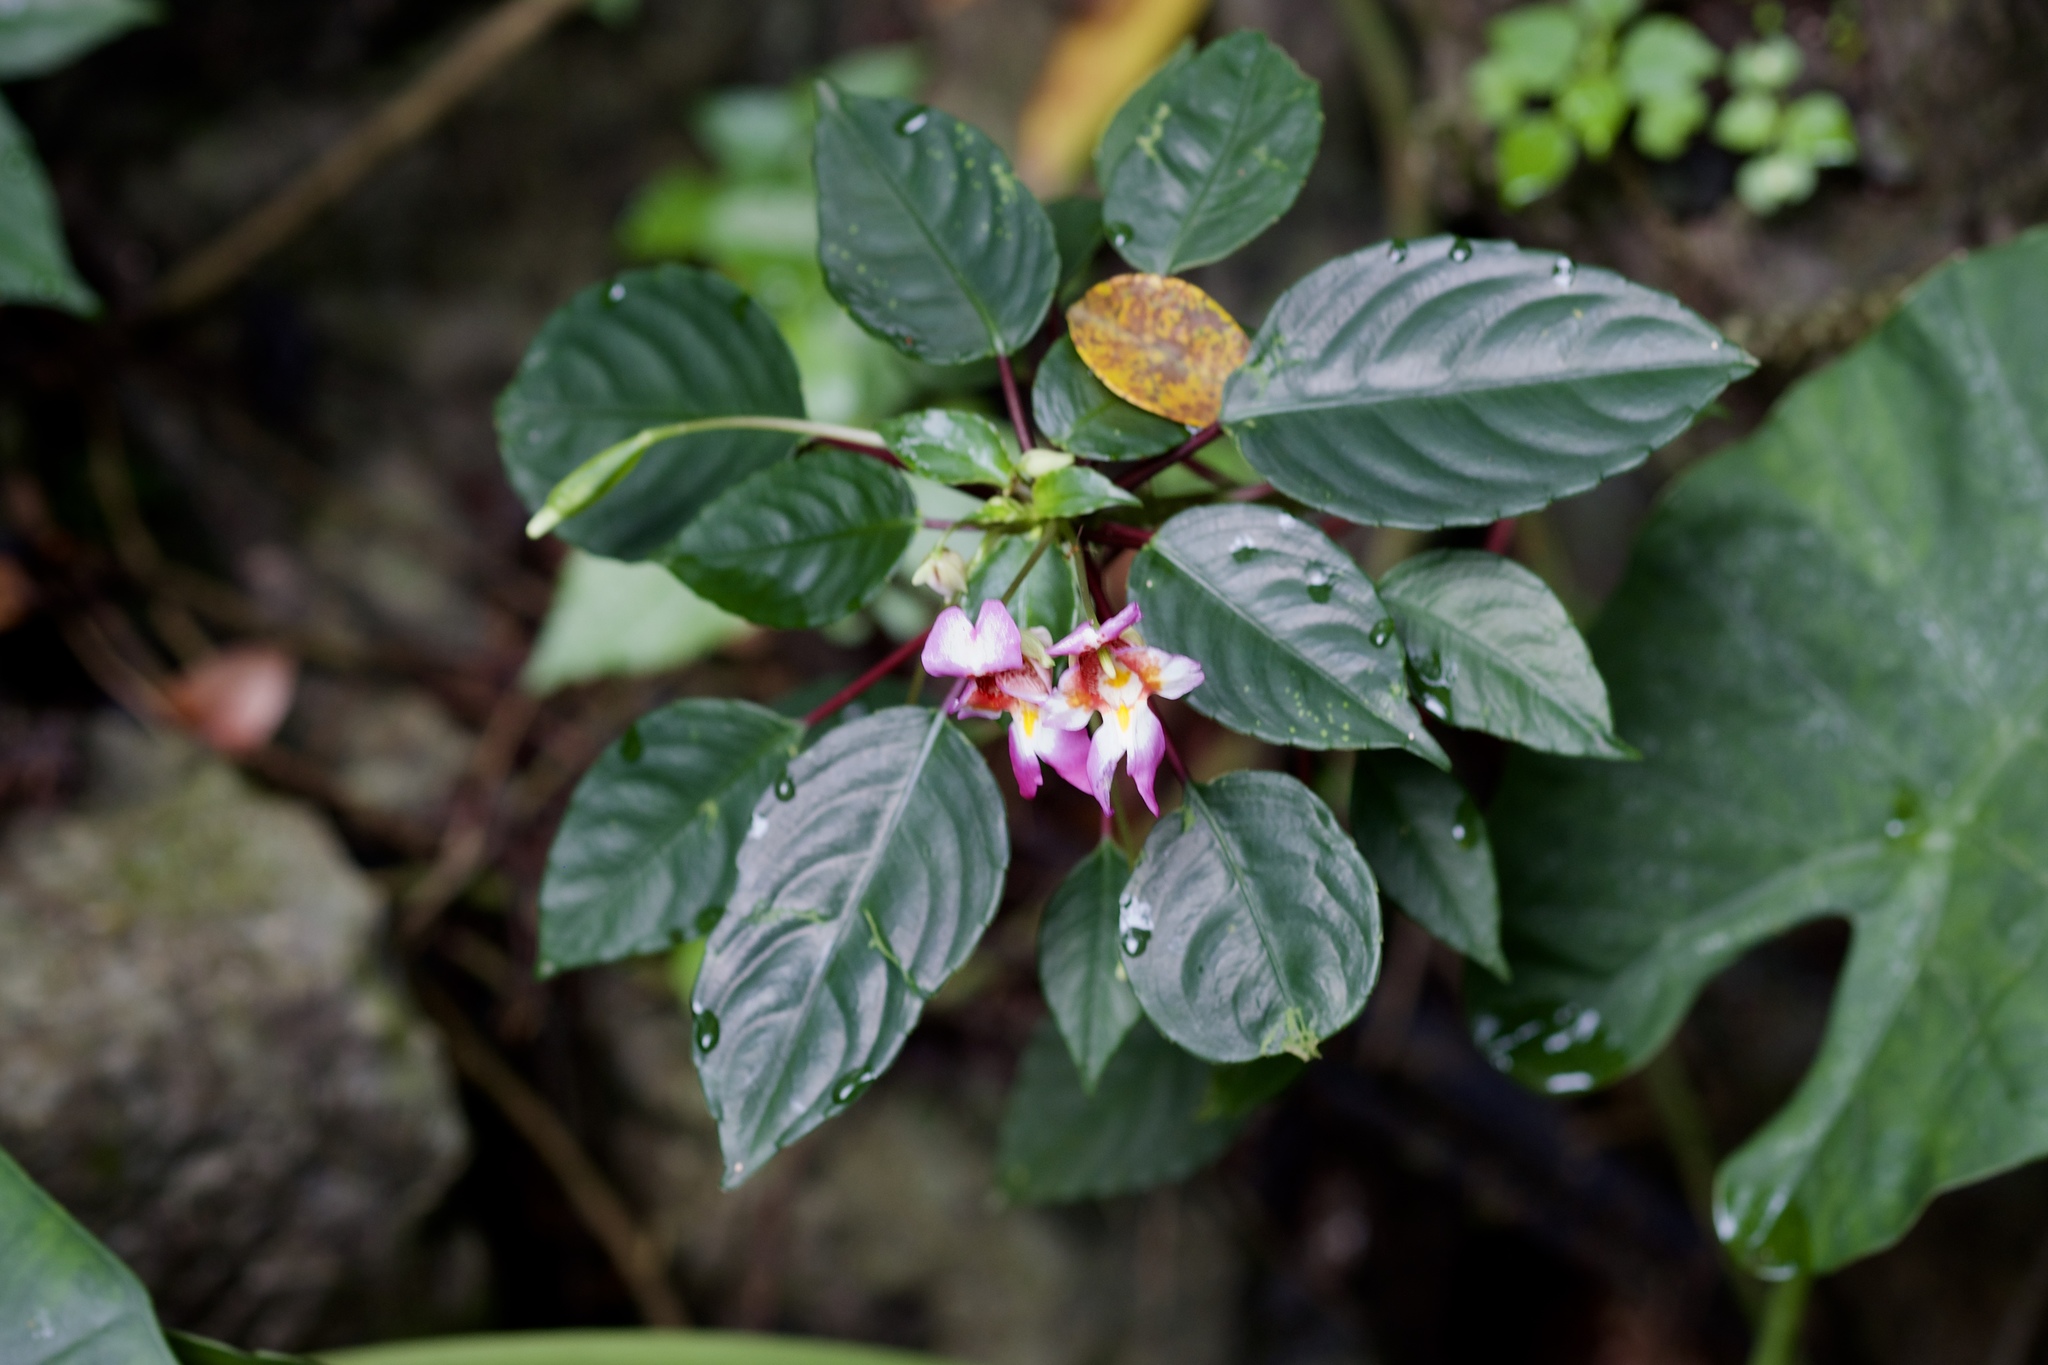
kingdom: Plantae
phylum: Tracheophyta
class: Magnoliopsida
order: Ericales
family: Balsaminaceae
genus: Impatiens
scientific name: Impatiens bonii
